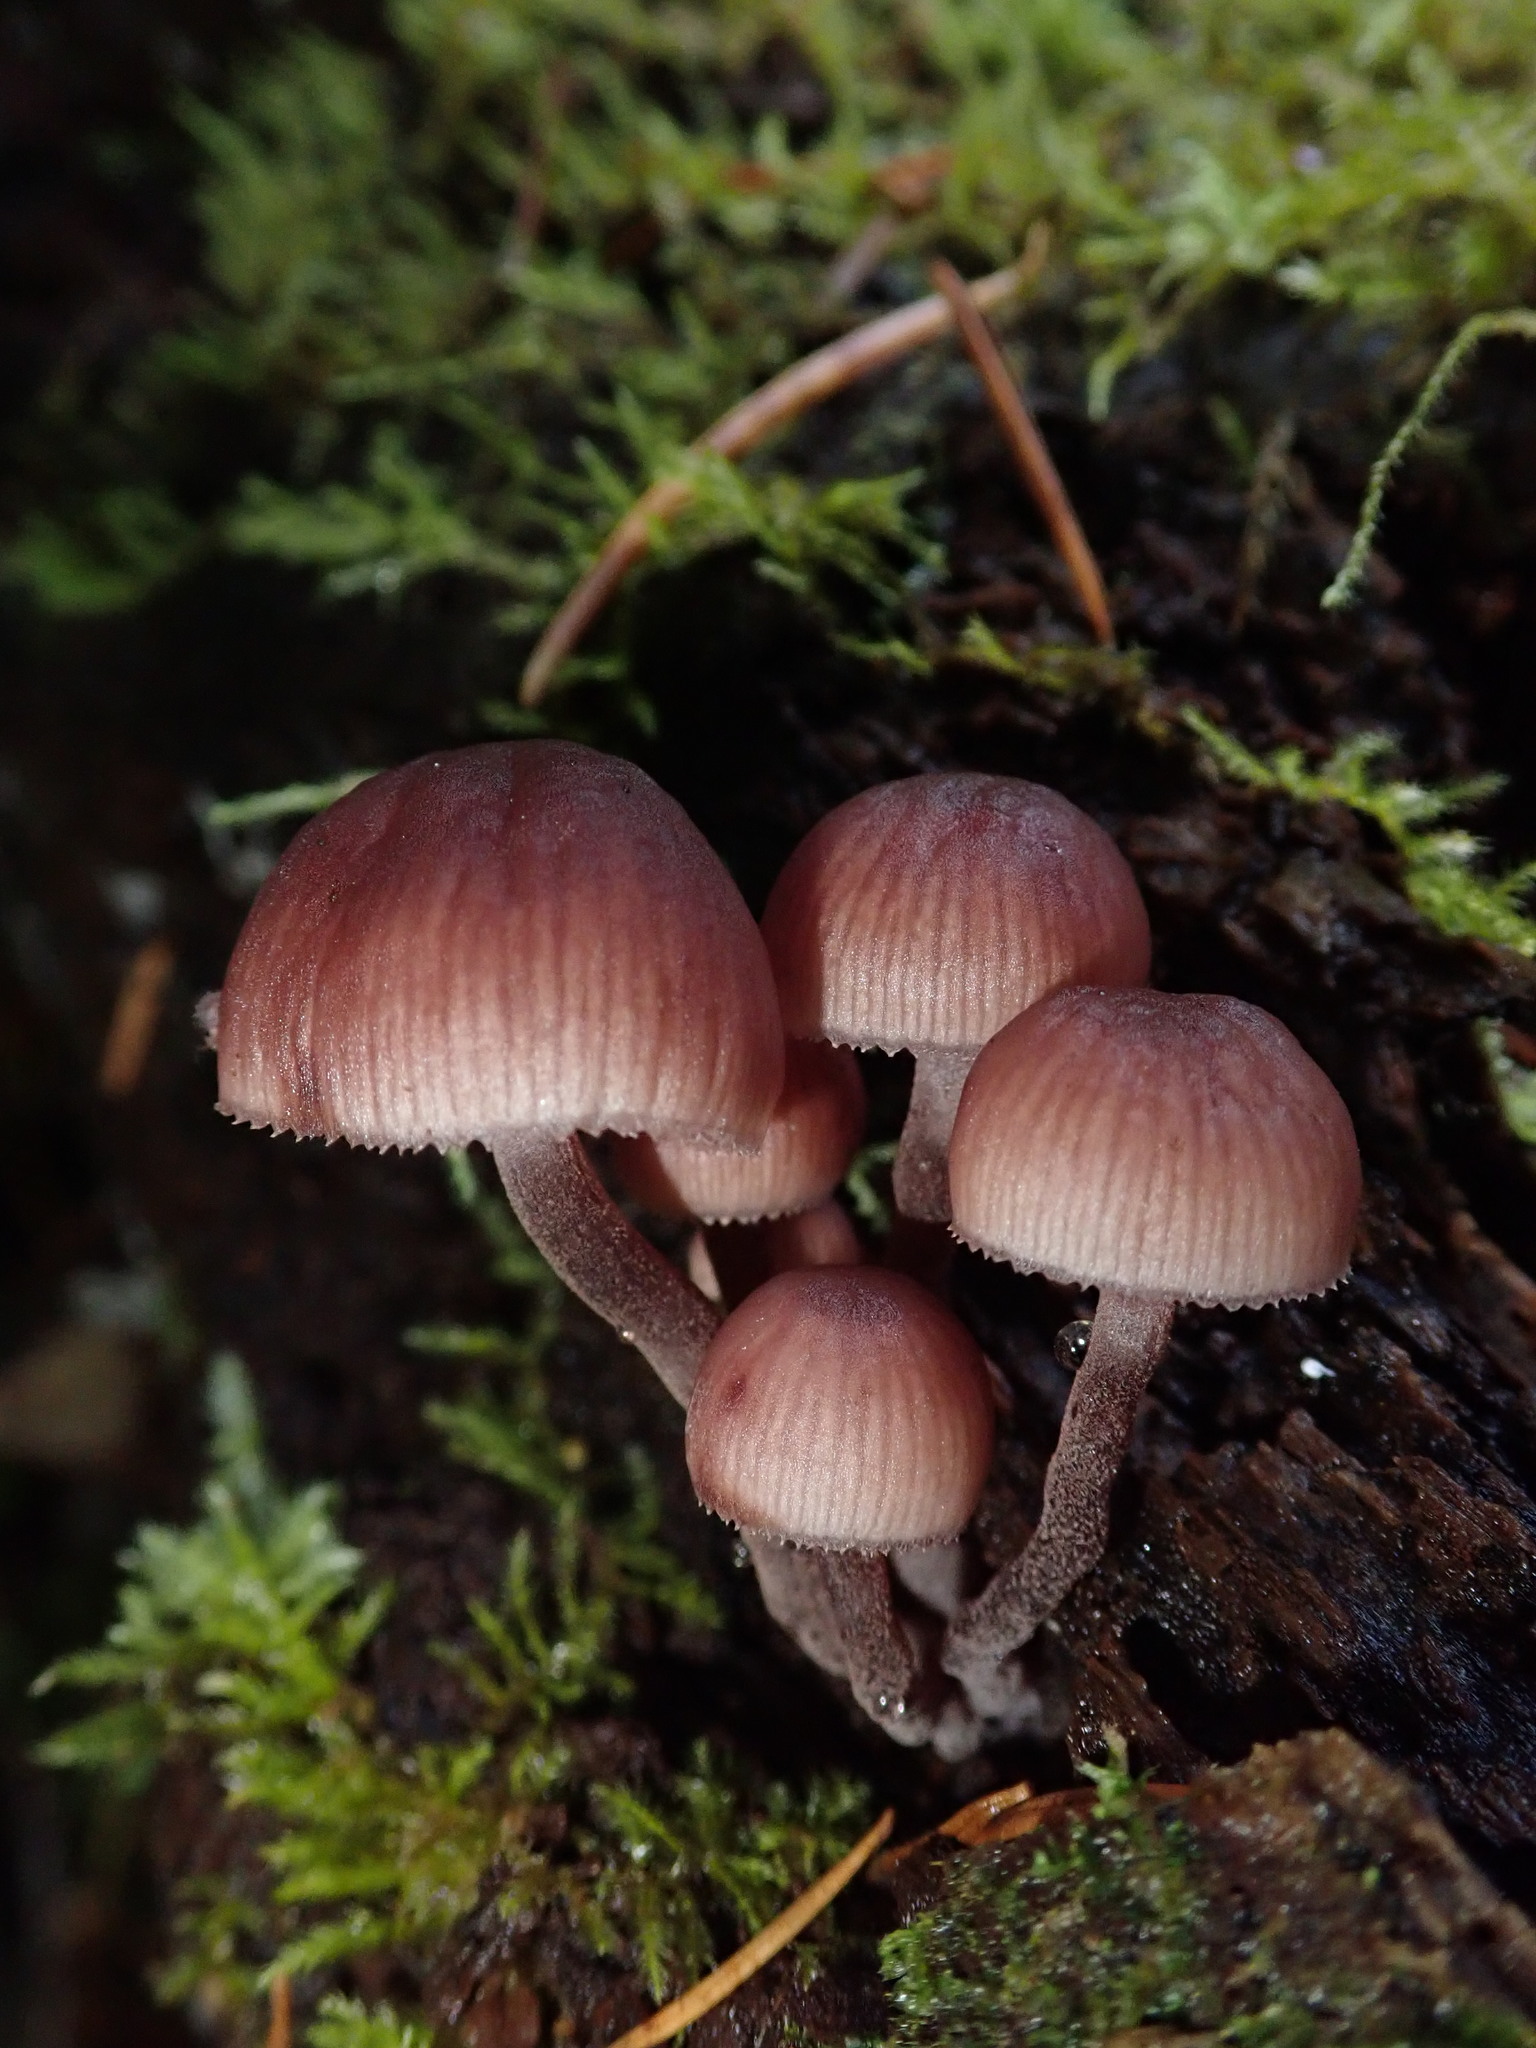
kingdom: Fungi
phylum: Basidiomycota
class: Agaricomycetes
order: Agaricales
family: Mycenaceae
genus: Mycena
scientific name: Mycena haematopus
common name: Burgundydrop bonnet
